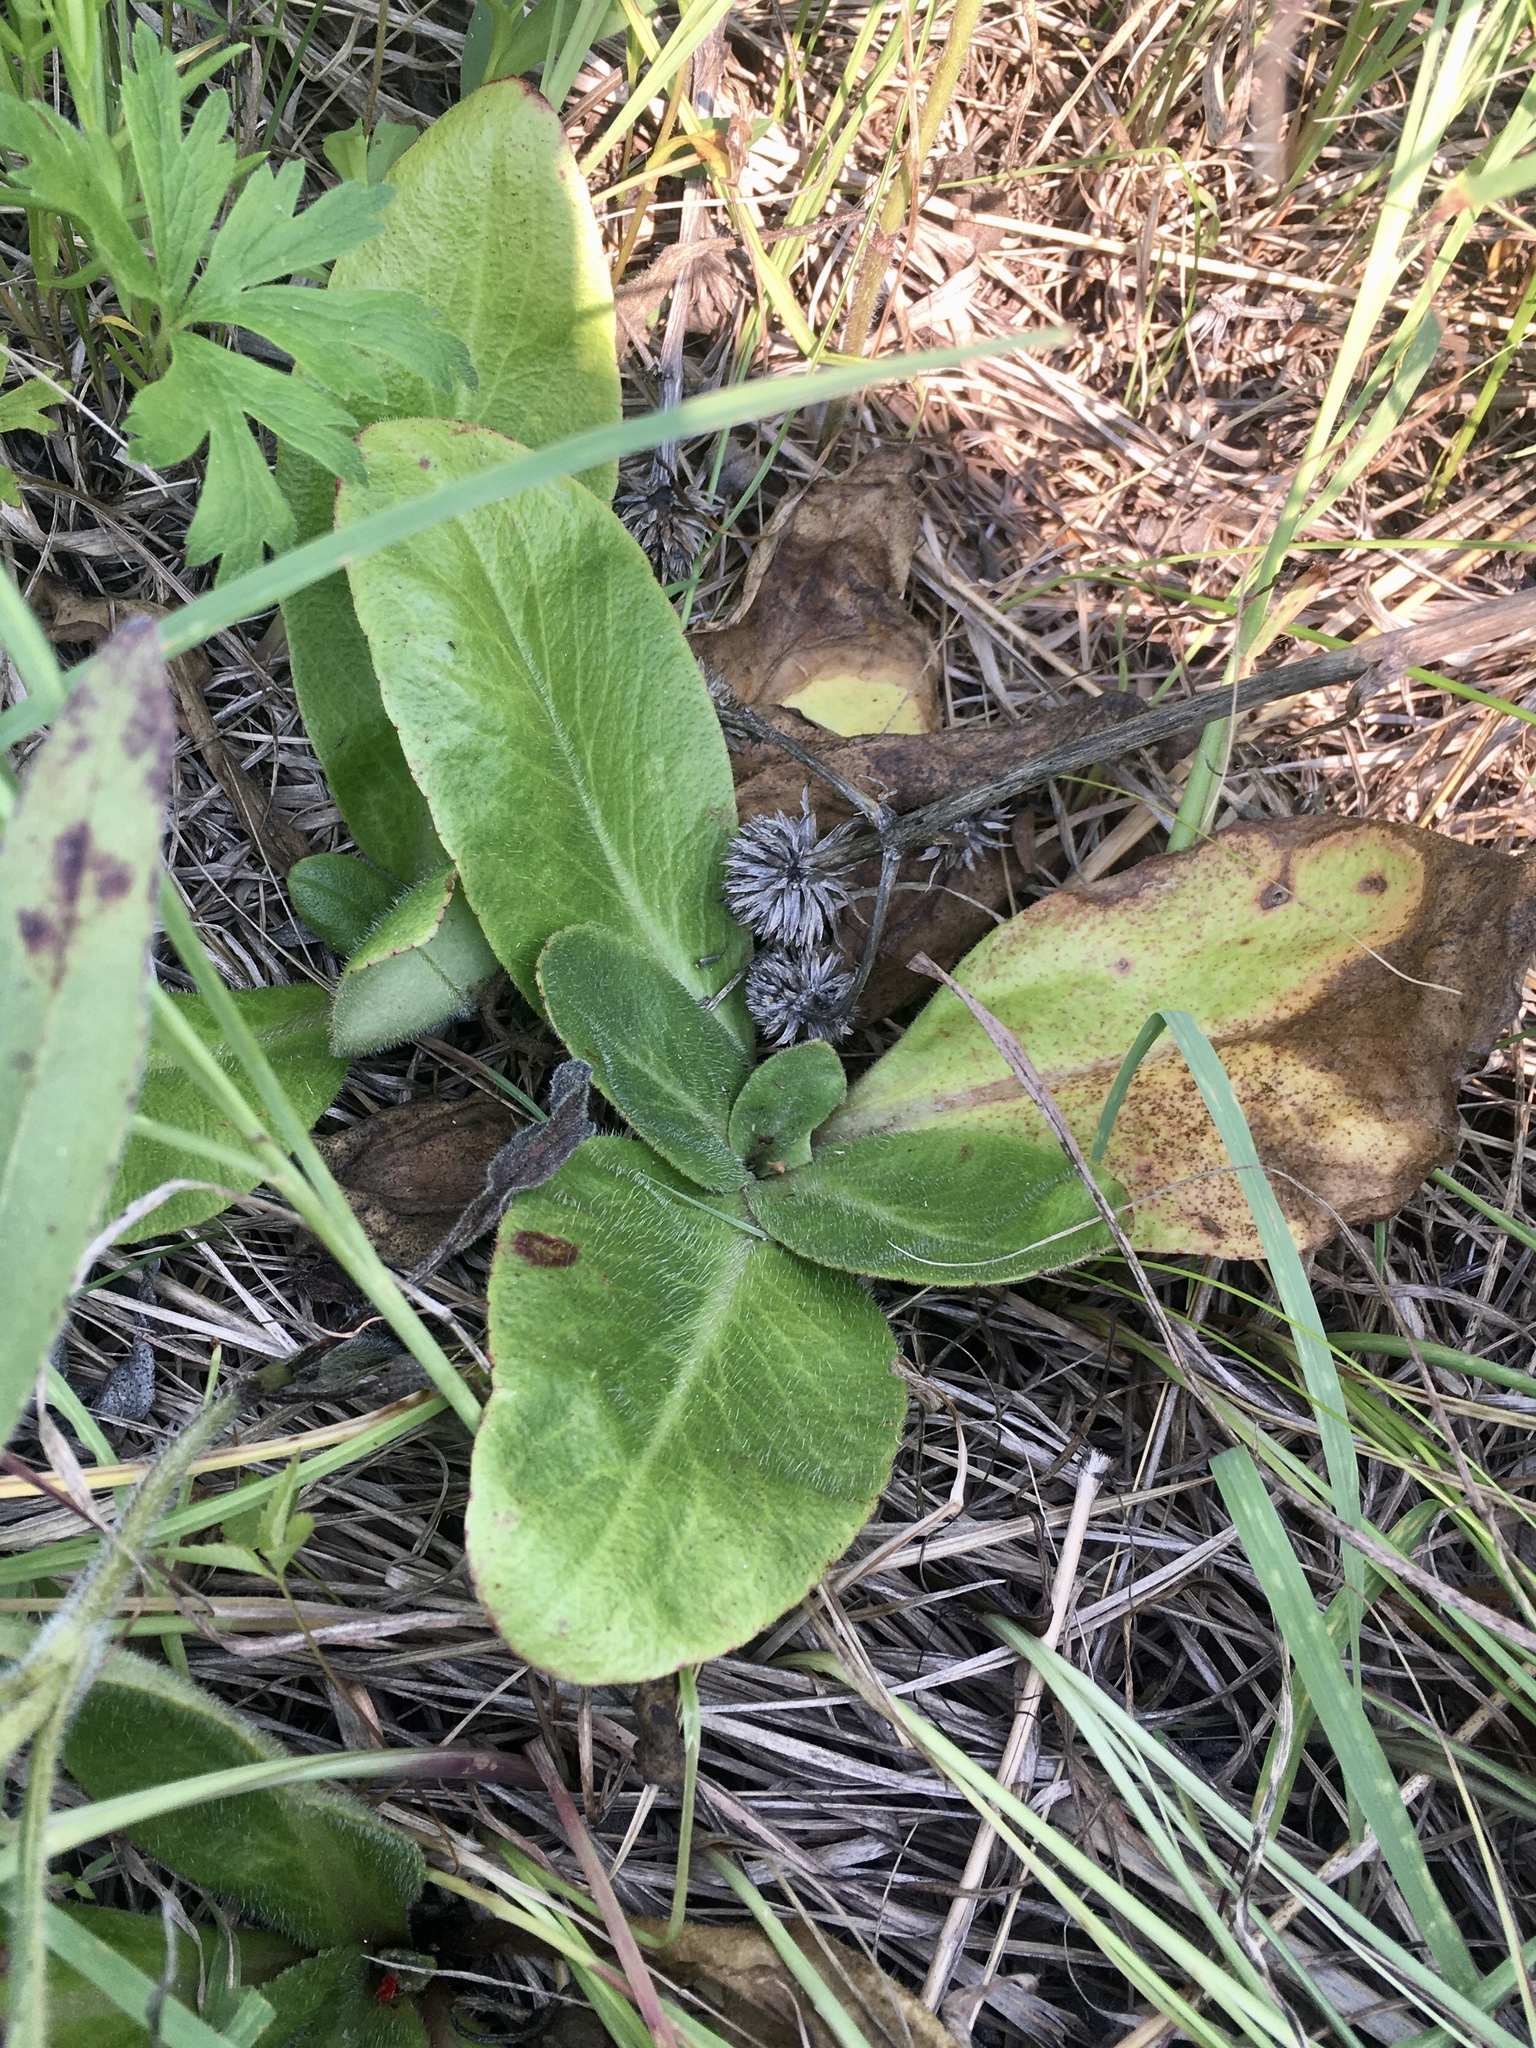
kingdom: Plantae
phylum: Tracheophyta
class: Magnoliopsida
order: Saxifragales
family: Saxifragaceae
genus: Micranthes
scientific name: Micranthes pensylvanica
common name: Marsh saxifrage
